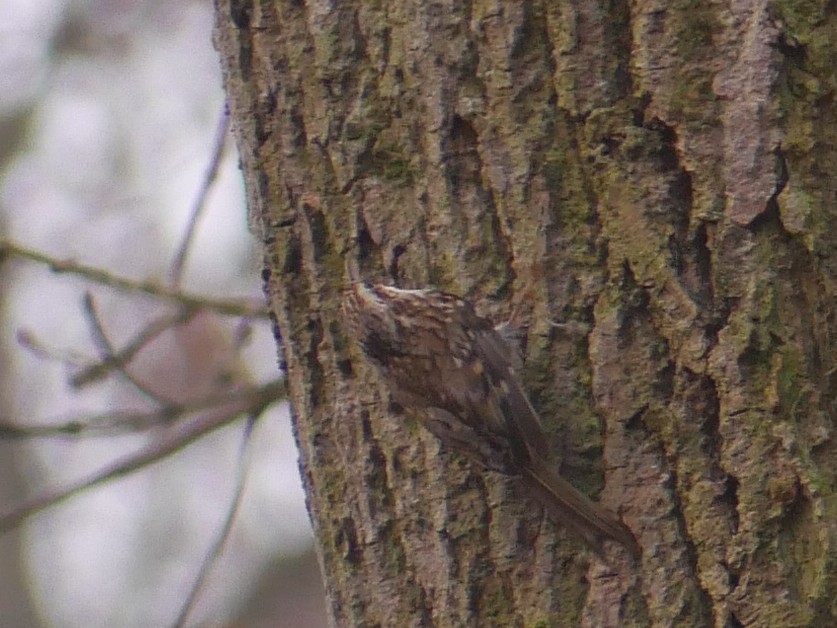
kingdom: Animalia
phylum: Chordata
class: Aves
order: Passeriformes
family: Certhiidae
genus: Certhia
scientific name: Certhia familiaris
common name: Eurasian treecreeper
